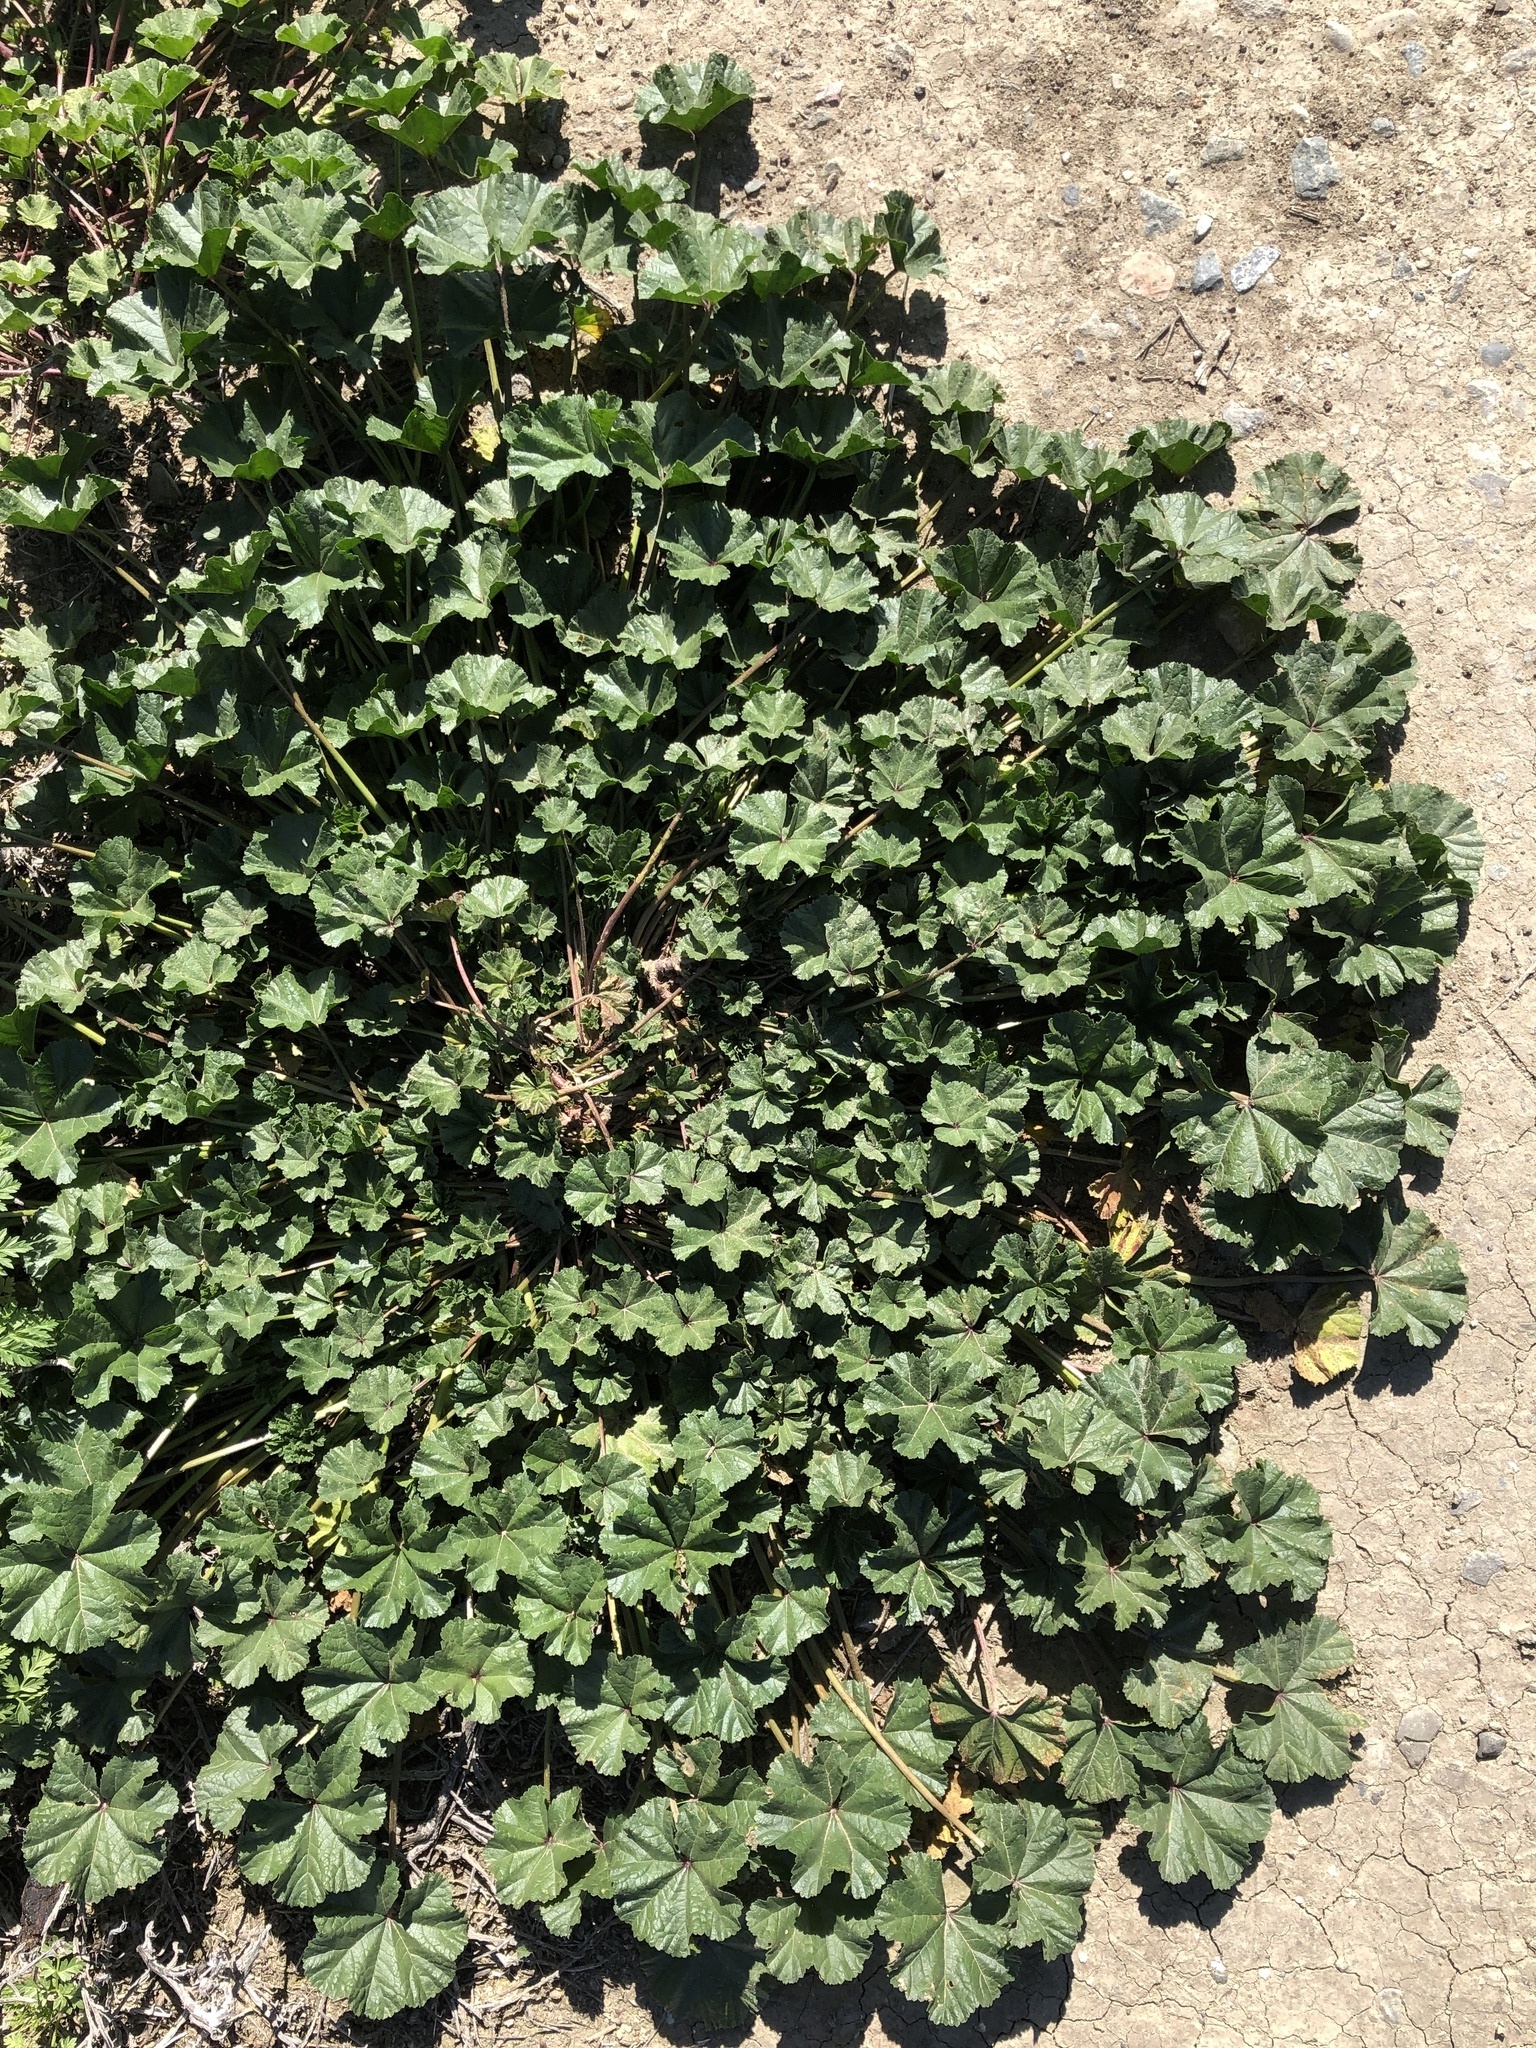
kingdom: Plantae
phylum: Tracheophyta
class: Magnoliopsida
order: Malvales
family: Malvaceae
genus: Malva
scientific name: Malva
